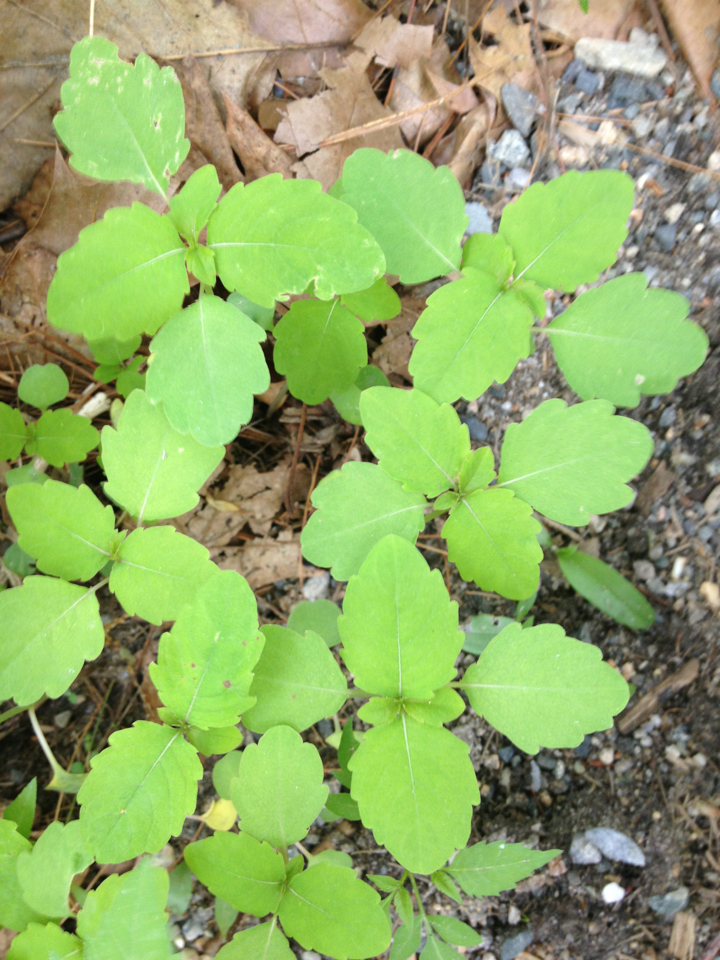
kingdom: Plantae
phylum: Tracheophyta
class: Magnoliopsida
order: Ericales
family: Balsaminaceae
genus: Impatiens
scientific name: Impatiens
